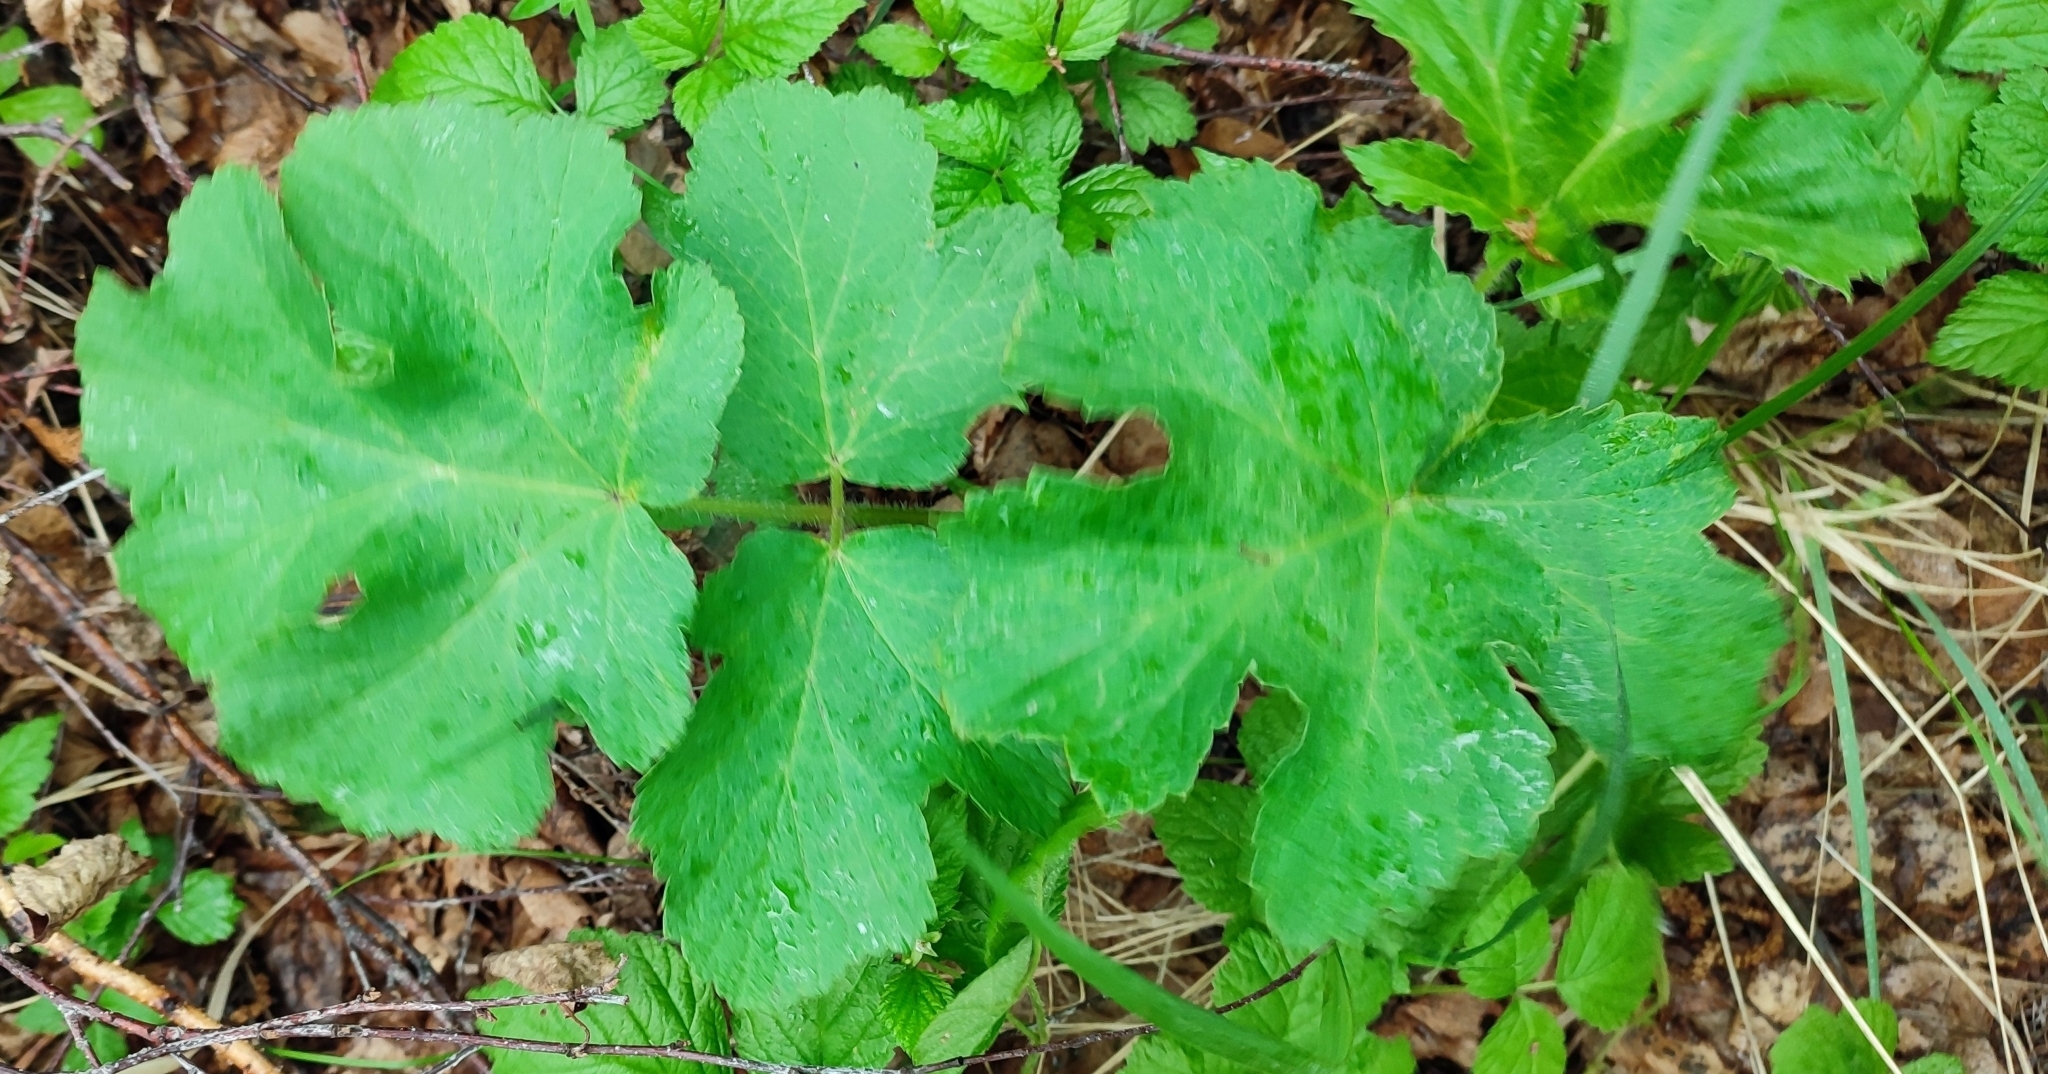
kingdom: Plantae
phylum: Tracheophyta
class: Magnoliopsida
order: Apiales
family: Apiaceae
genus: Heracleum
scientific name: Heracleum sphondylium
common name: Hogweed
